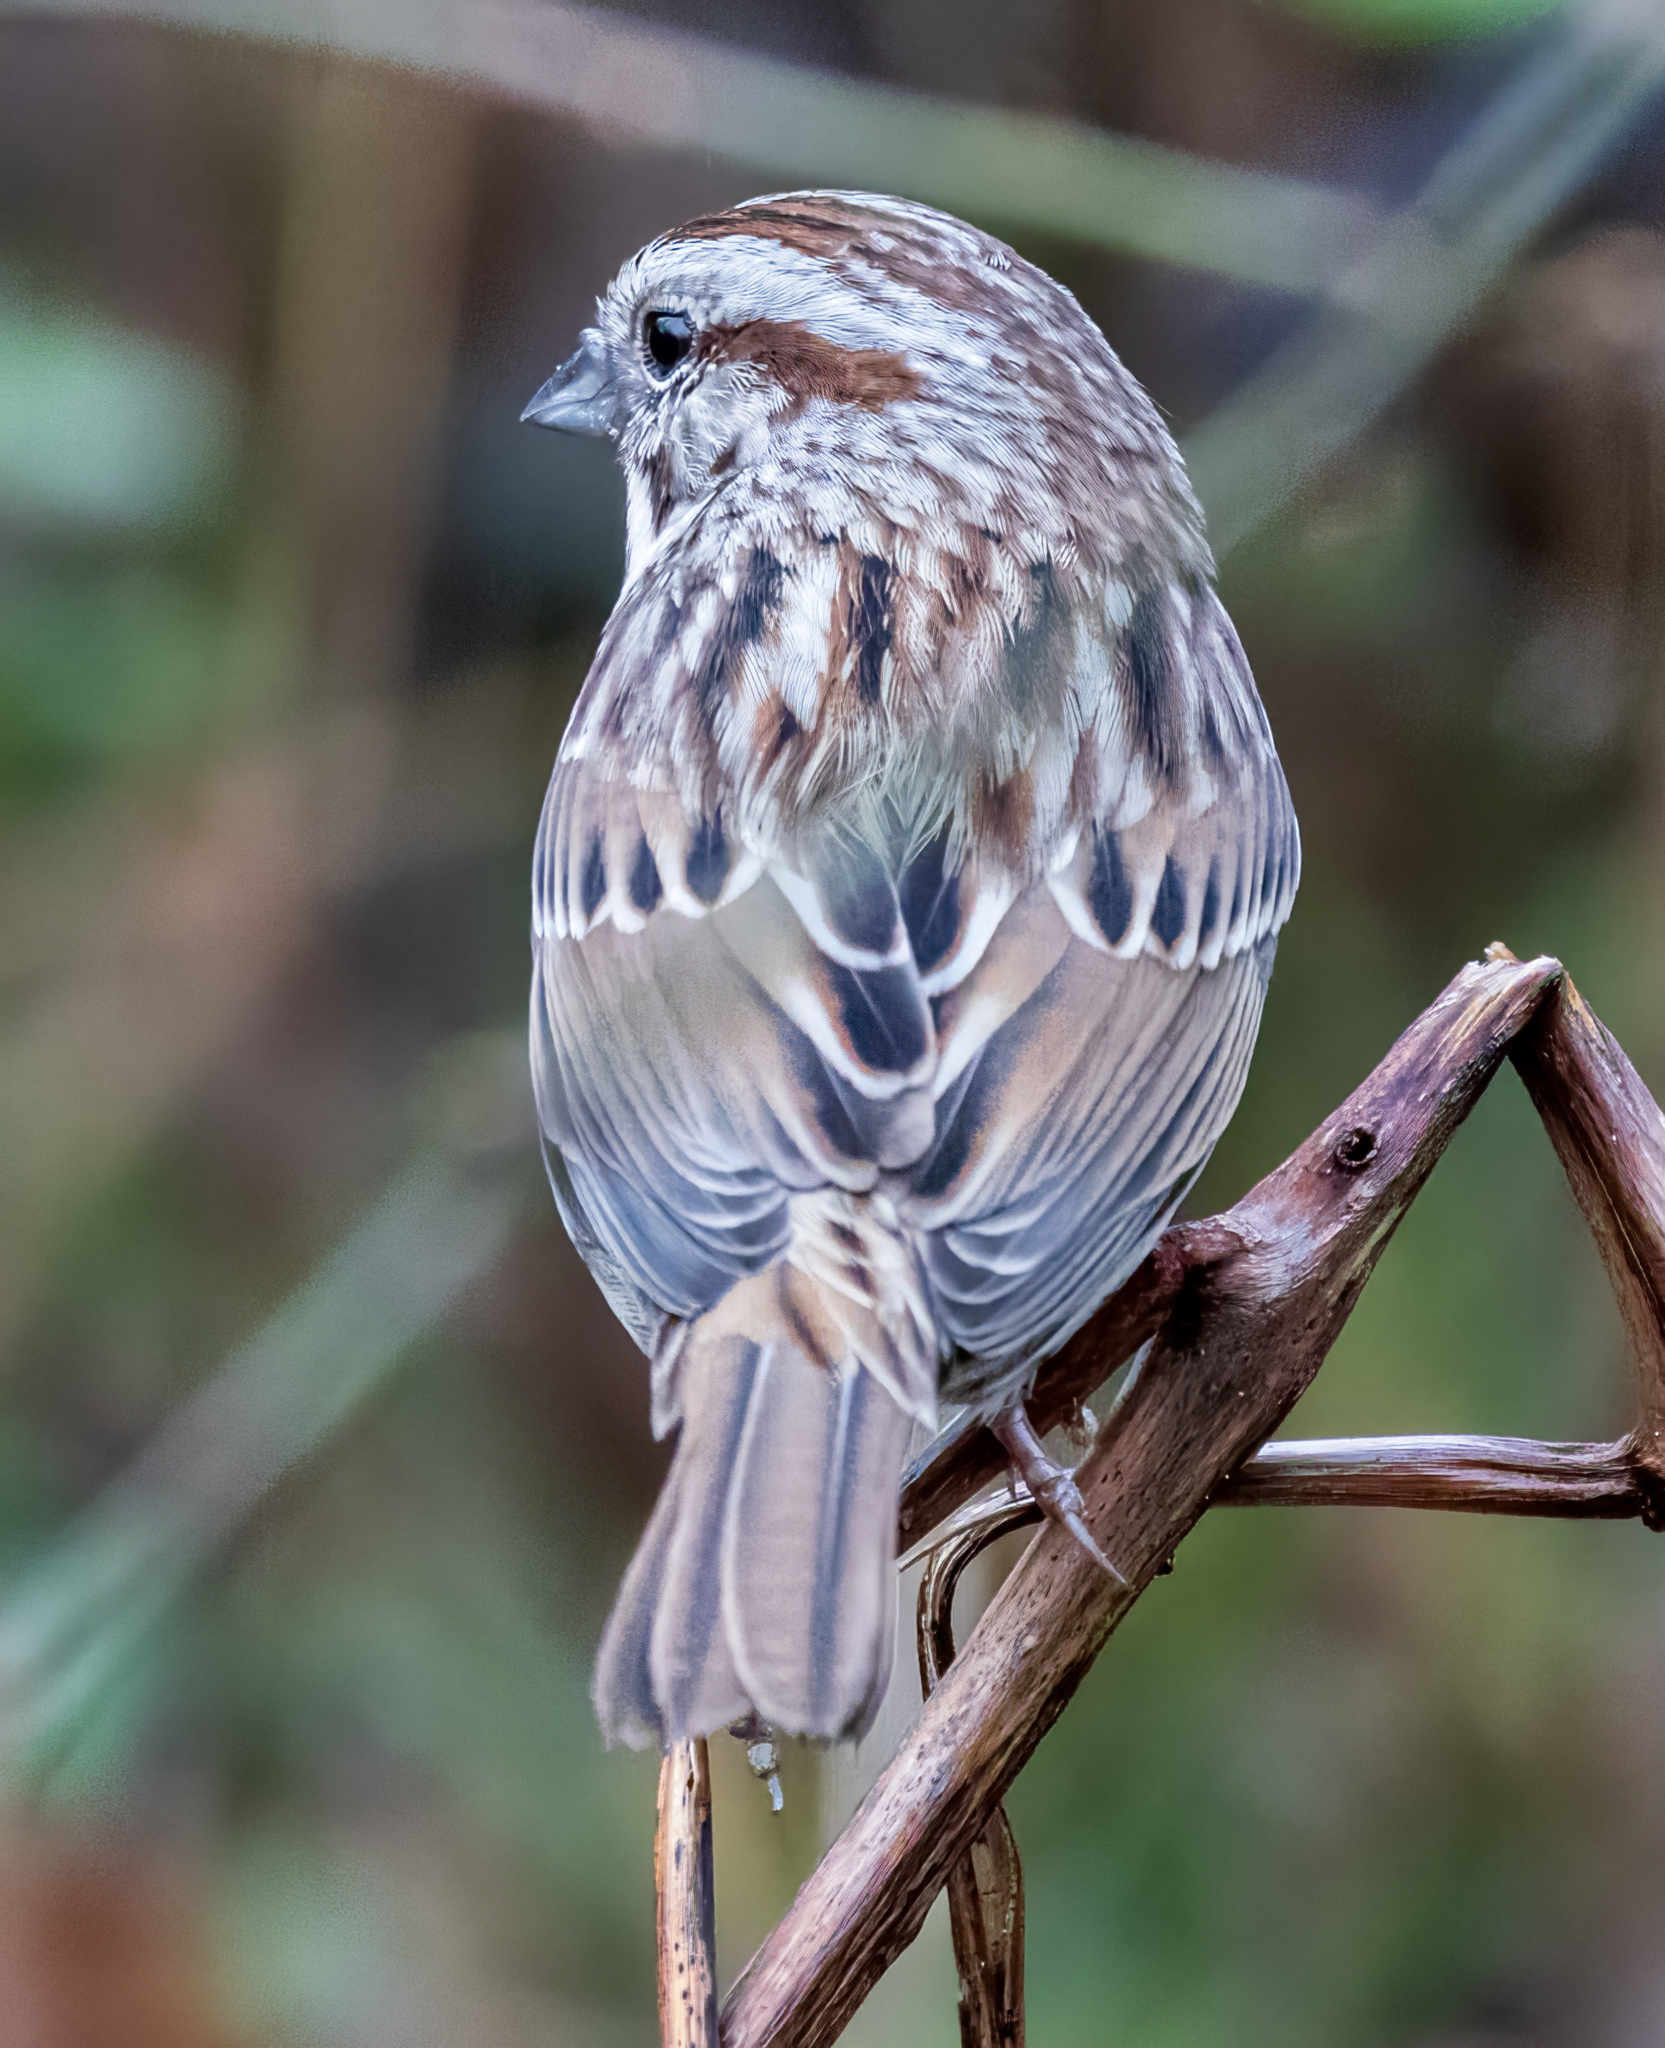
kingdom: Animalia
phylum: Chordata
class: Aves
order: Passeriformes
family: Passerellidae
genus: Melospiza
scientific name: Melospiza melodia
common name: Song sparrow
